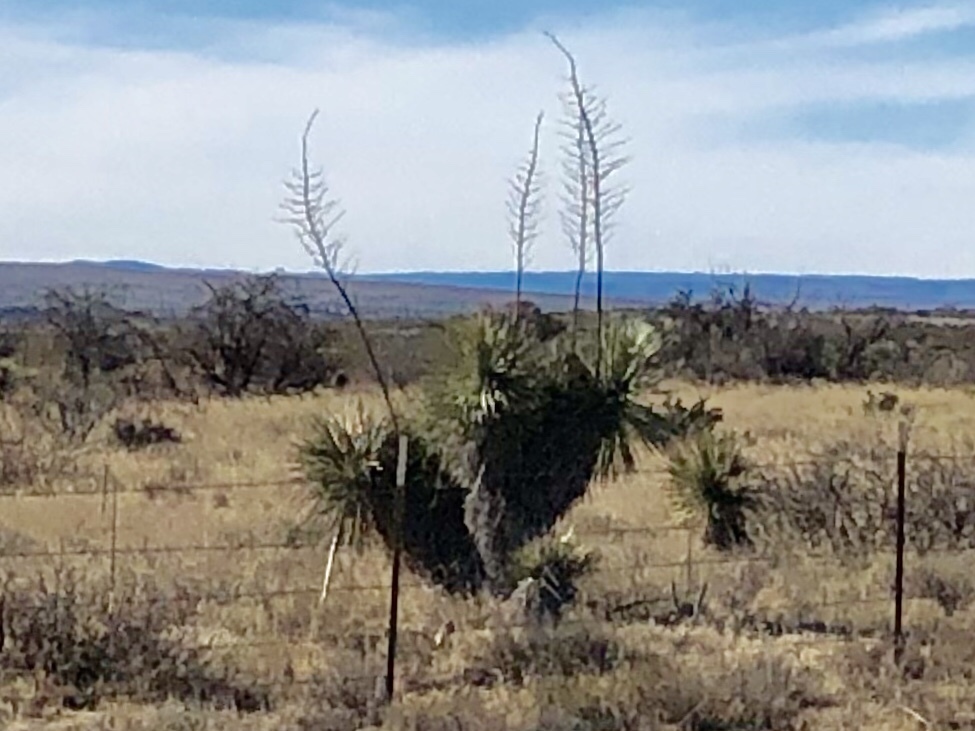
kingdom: Plantae
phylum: Tracheophyta
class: Liliopsida
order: Asparagales
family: Asparagaceae
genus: Yucca
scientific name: Yucca elata
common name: Palmella
